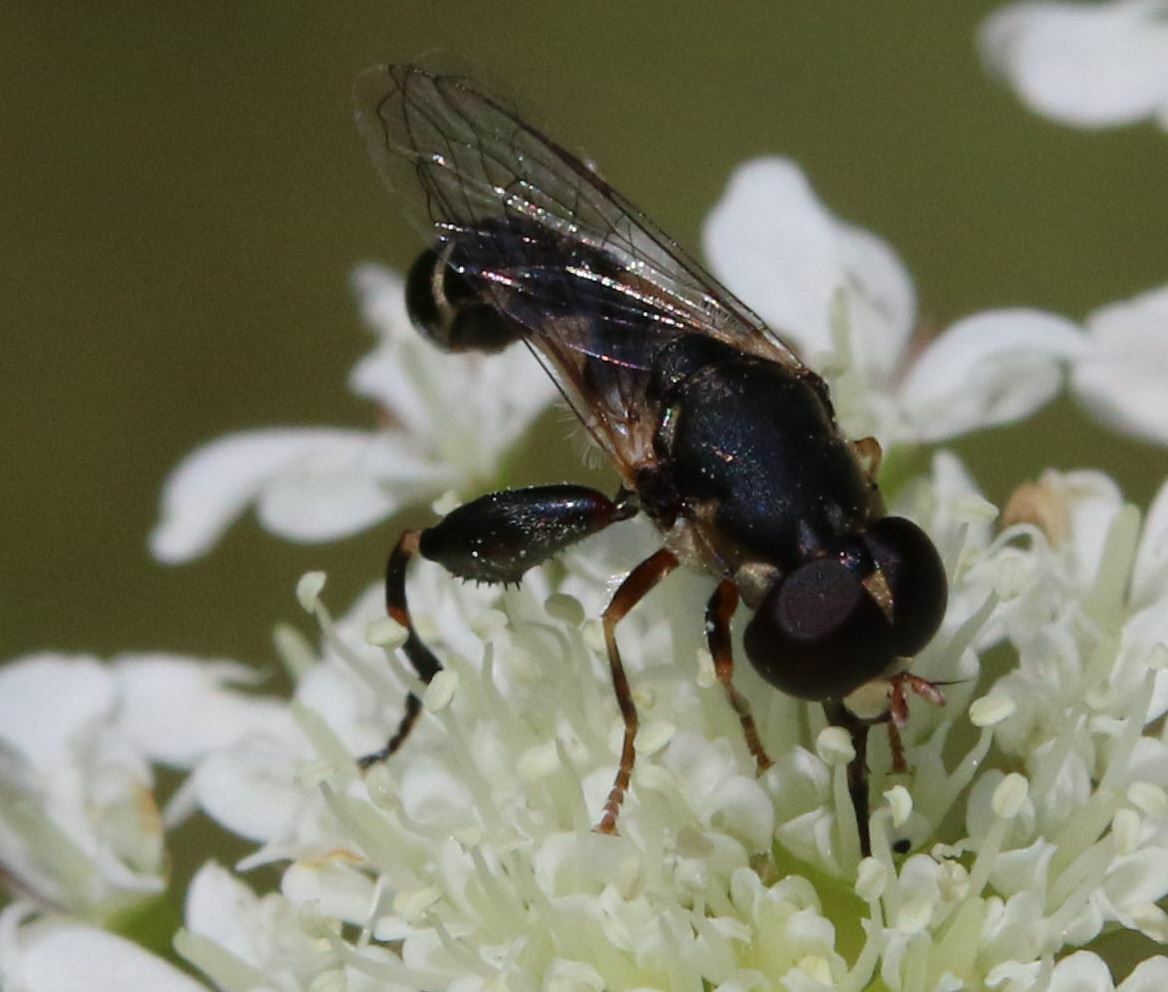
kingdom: Animalia
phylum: Arthropoda
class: Insecta
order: Diptera
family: Syrphidae
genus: Syritta
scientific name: Syritta pipiens
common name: Hover fly
